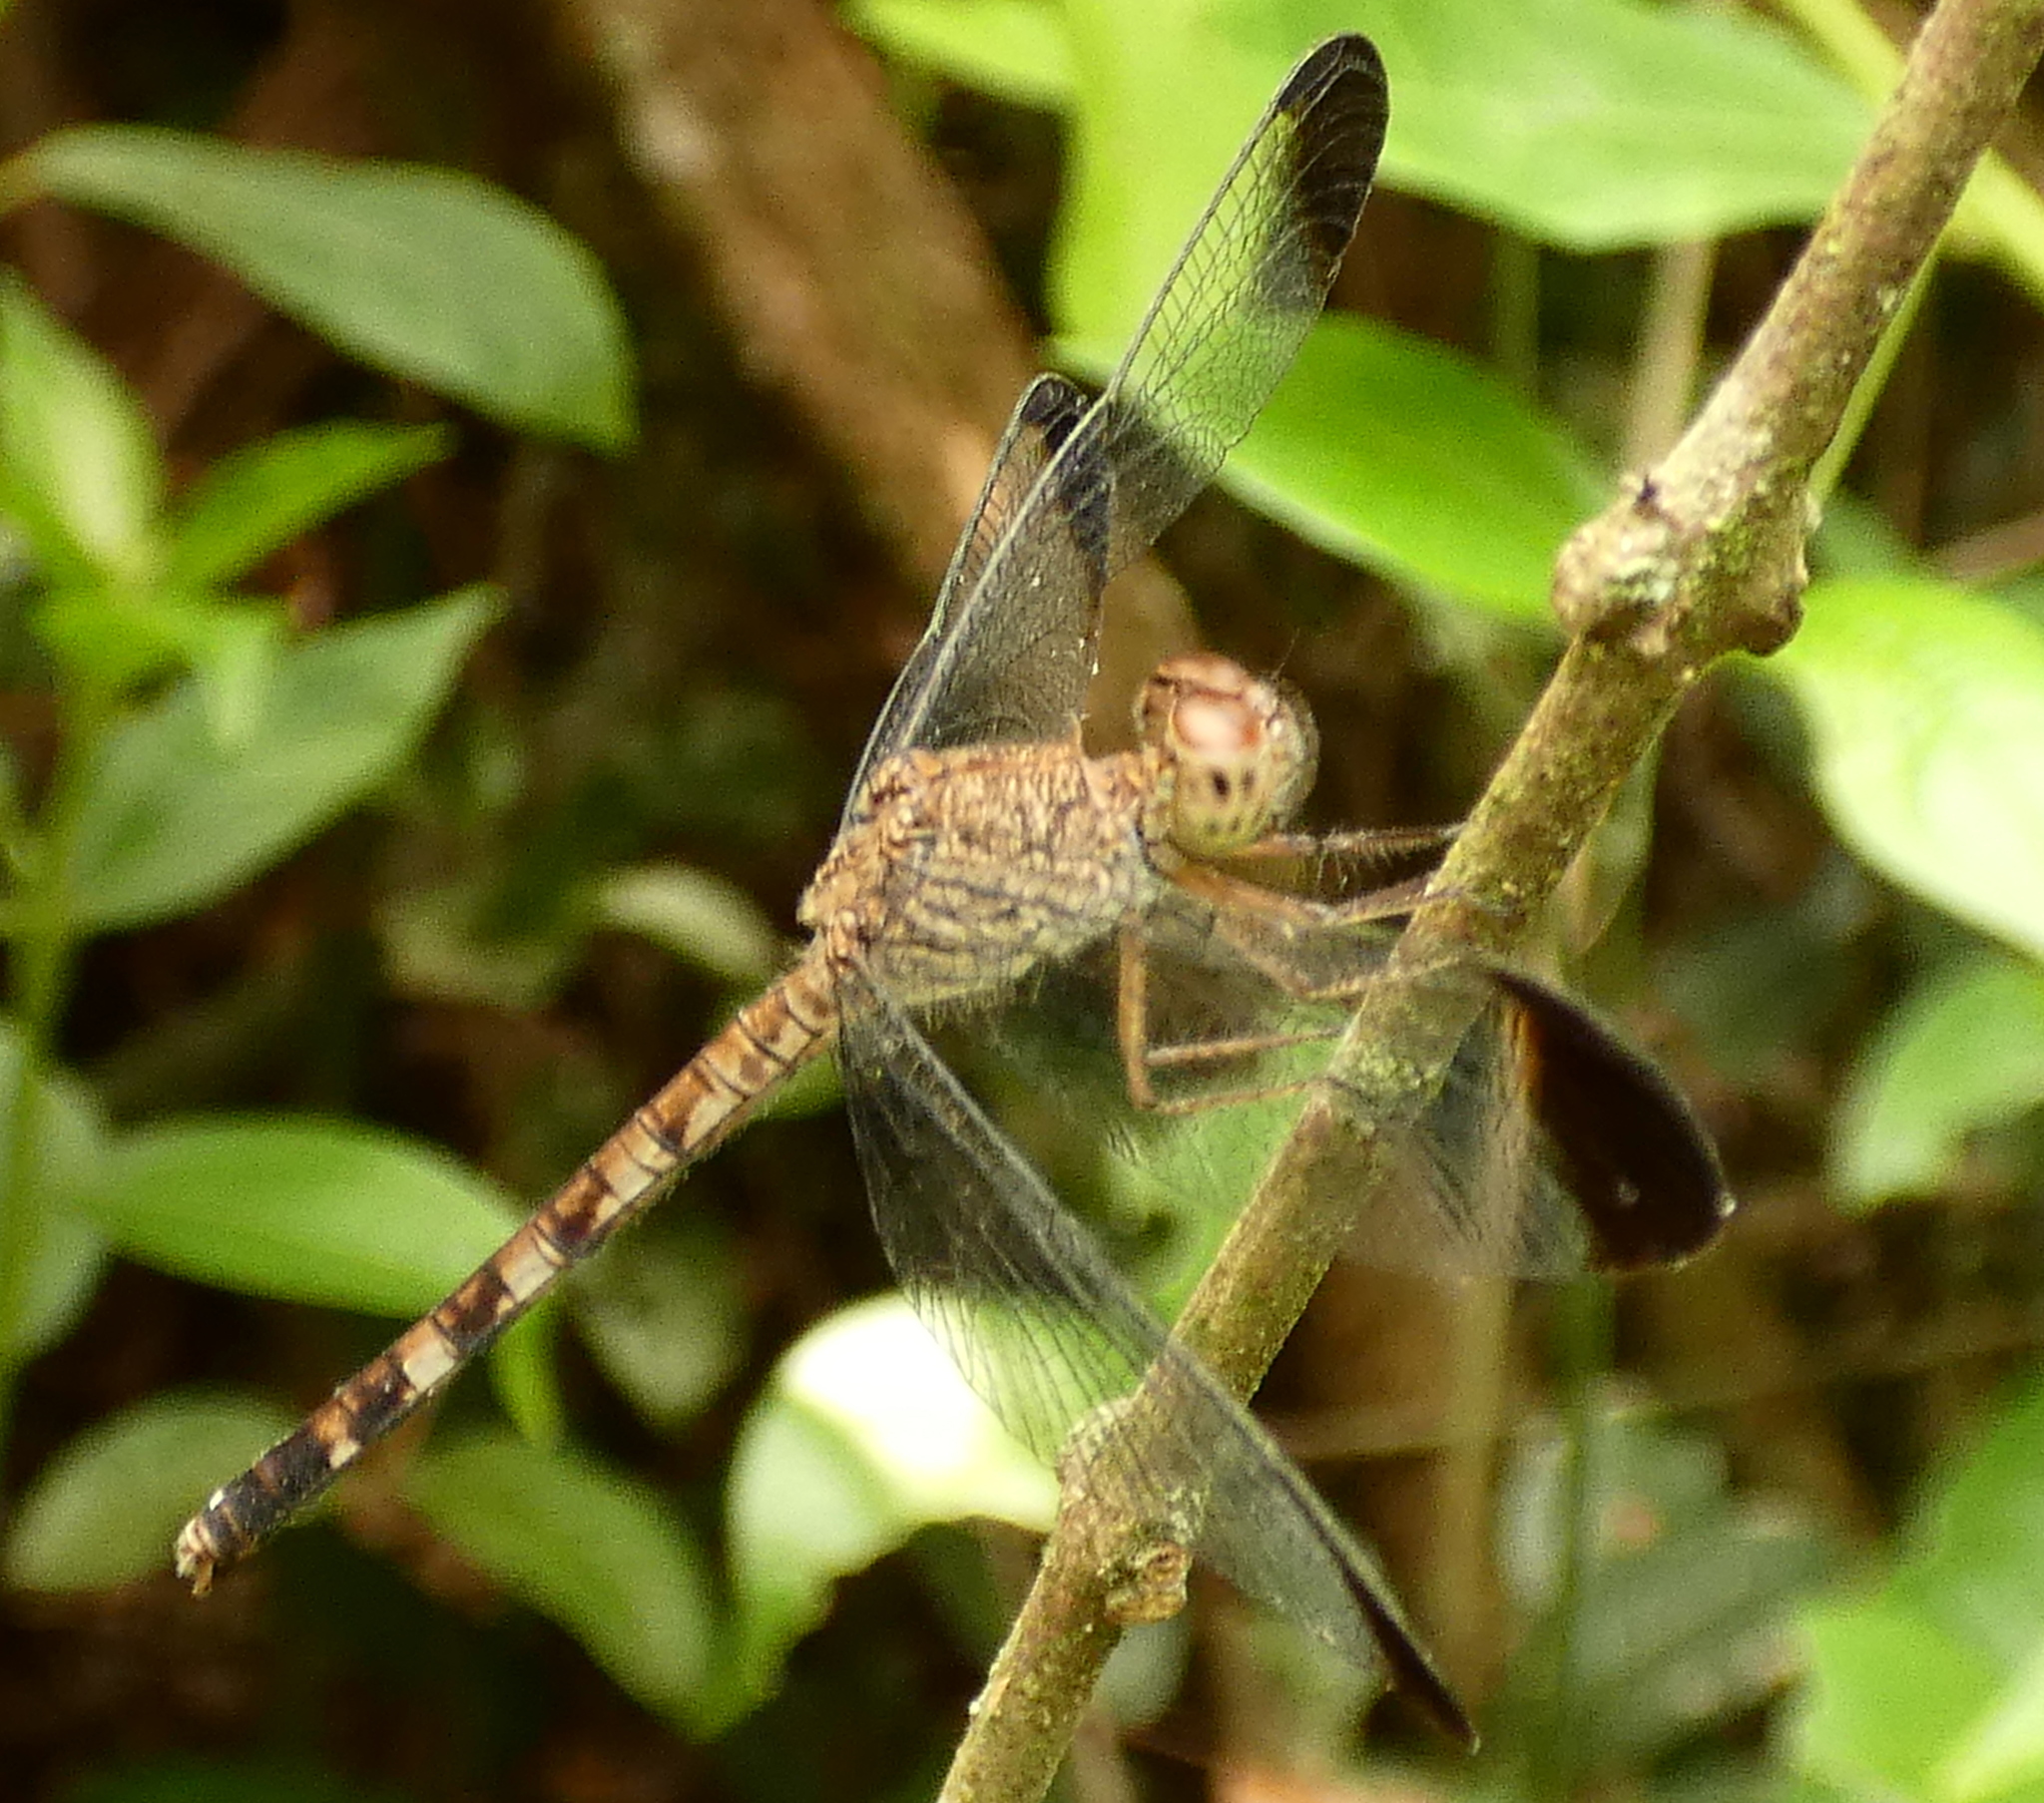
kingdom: Animalia
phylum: Arthropoda
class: Insecta
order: Odonata
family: Libellulidae
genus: Uracis
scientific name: Uracis imbuta
